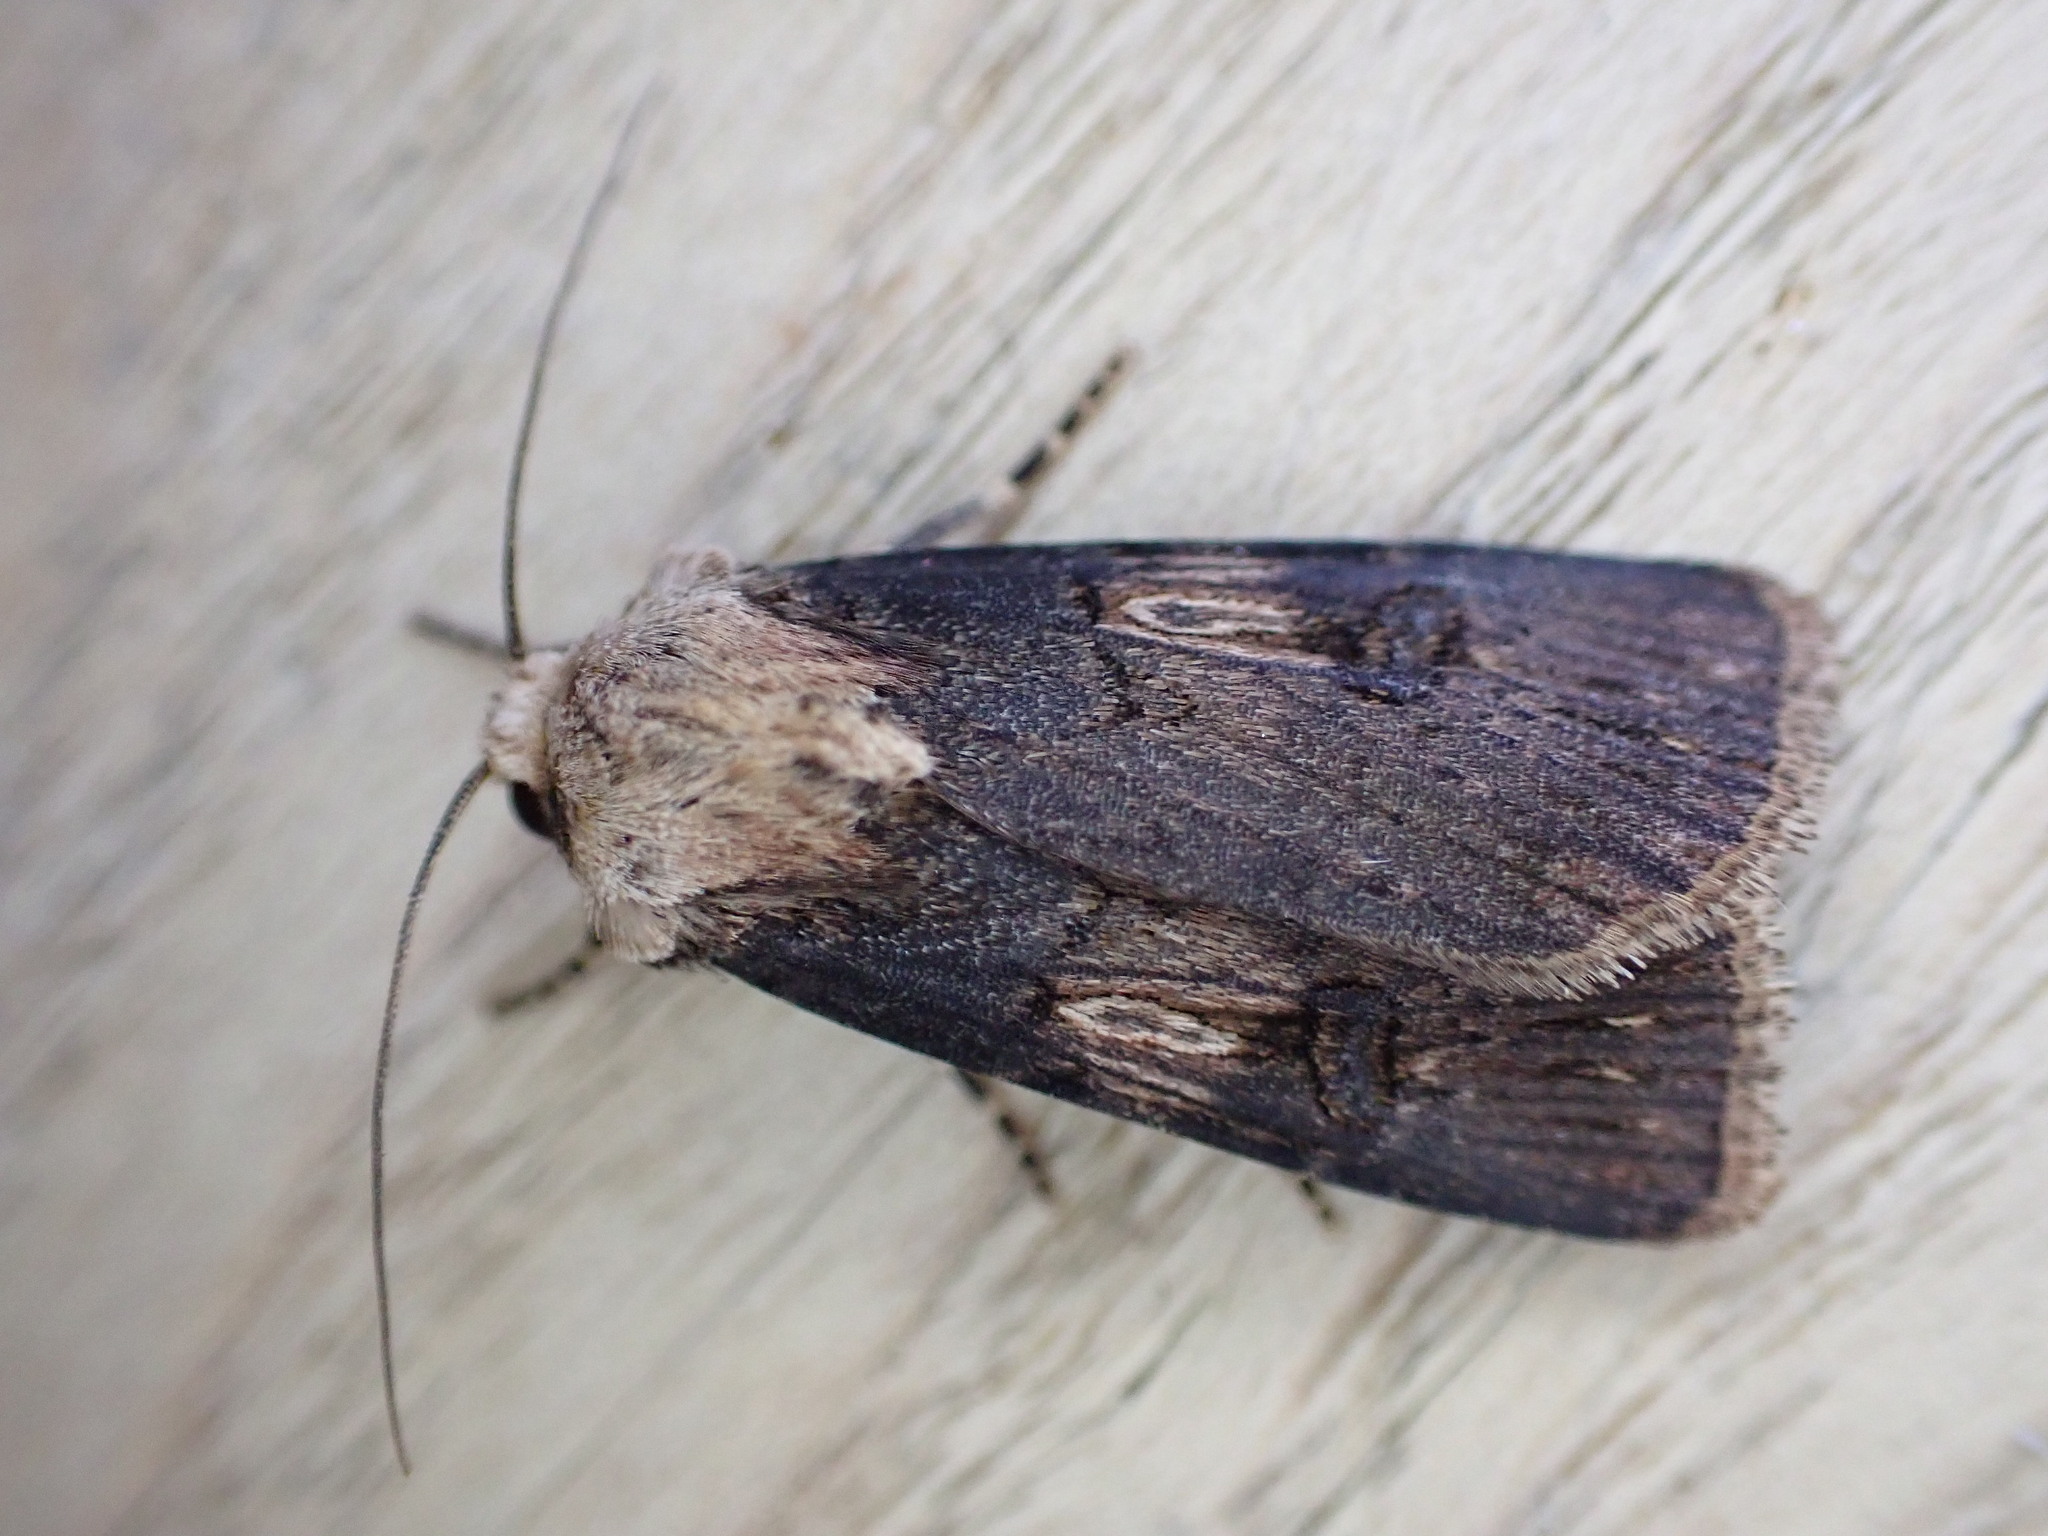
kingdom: Animalia
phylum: Arthropoda
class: Insecta
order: Lepidoptera
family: Noctuidae
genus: Agrotis
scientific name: Agrotis puta
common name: Shuttle-shaped dart
